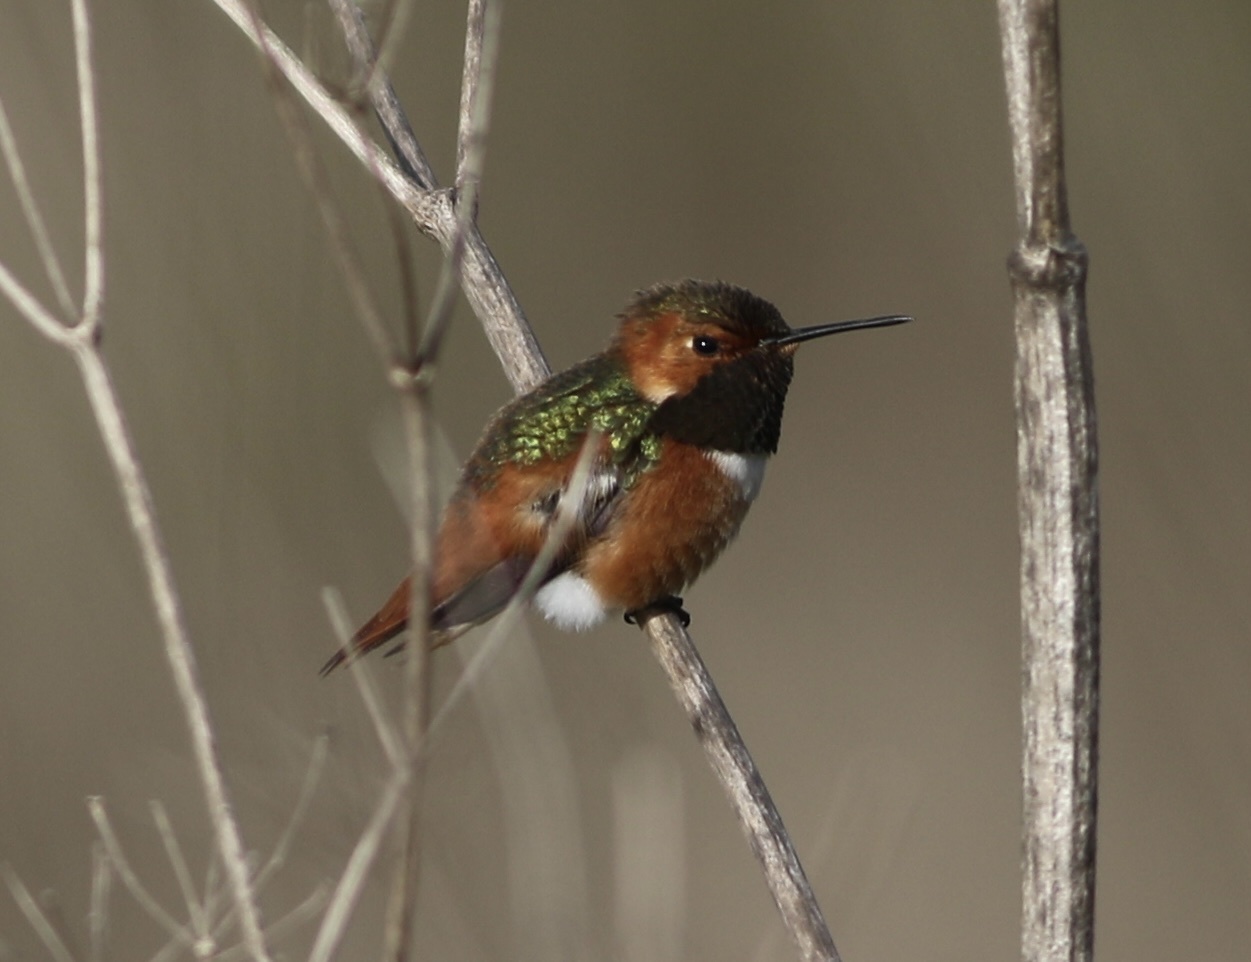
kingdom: Animalia
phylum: Chordata
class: Aves
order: Apodiformes
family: Trochilidae
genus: Selasphorus
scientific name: Selasphorus sasin
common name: Allen's hummingbird
